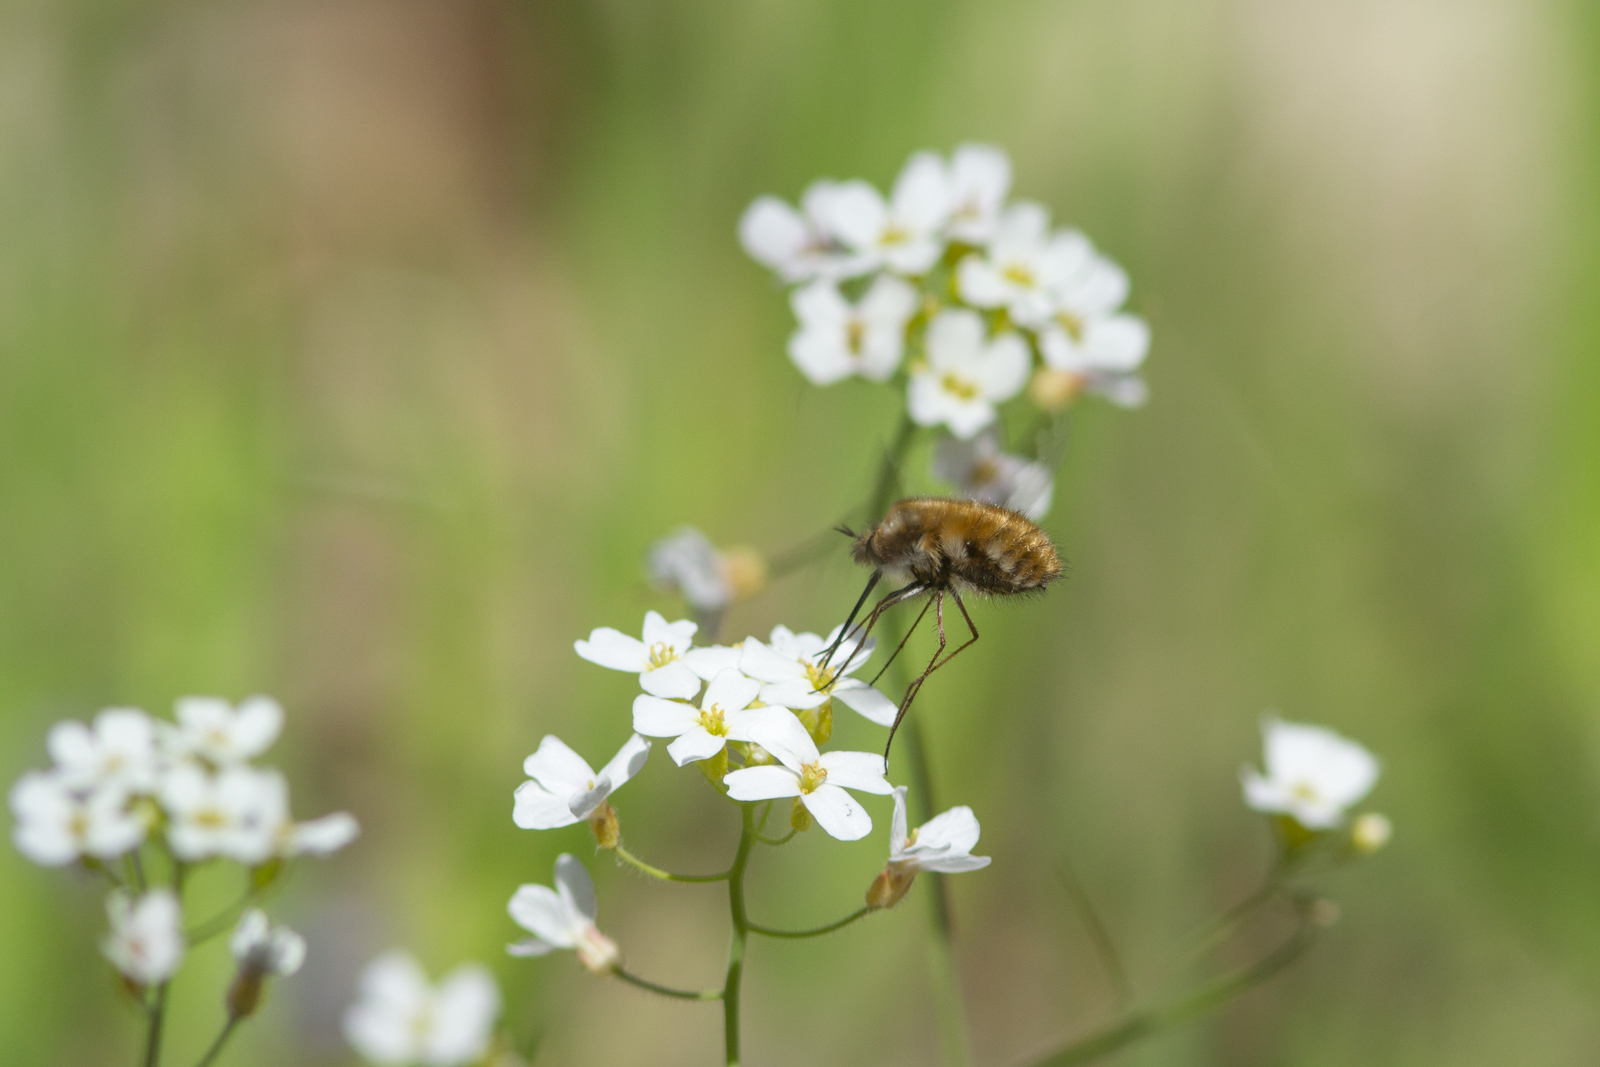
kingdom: Animalia
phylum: Arthropoda
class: Insecta
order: Diptera
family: Bombyliidae
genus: Bombylius
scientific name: Bombylius major
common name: Bee fly
